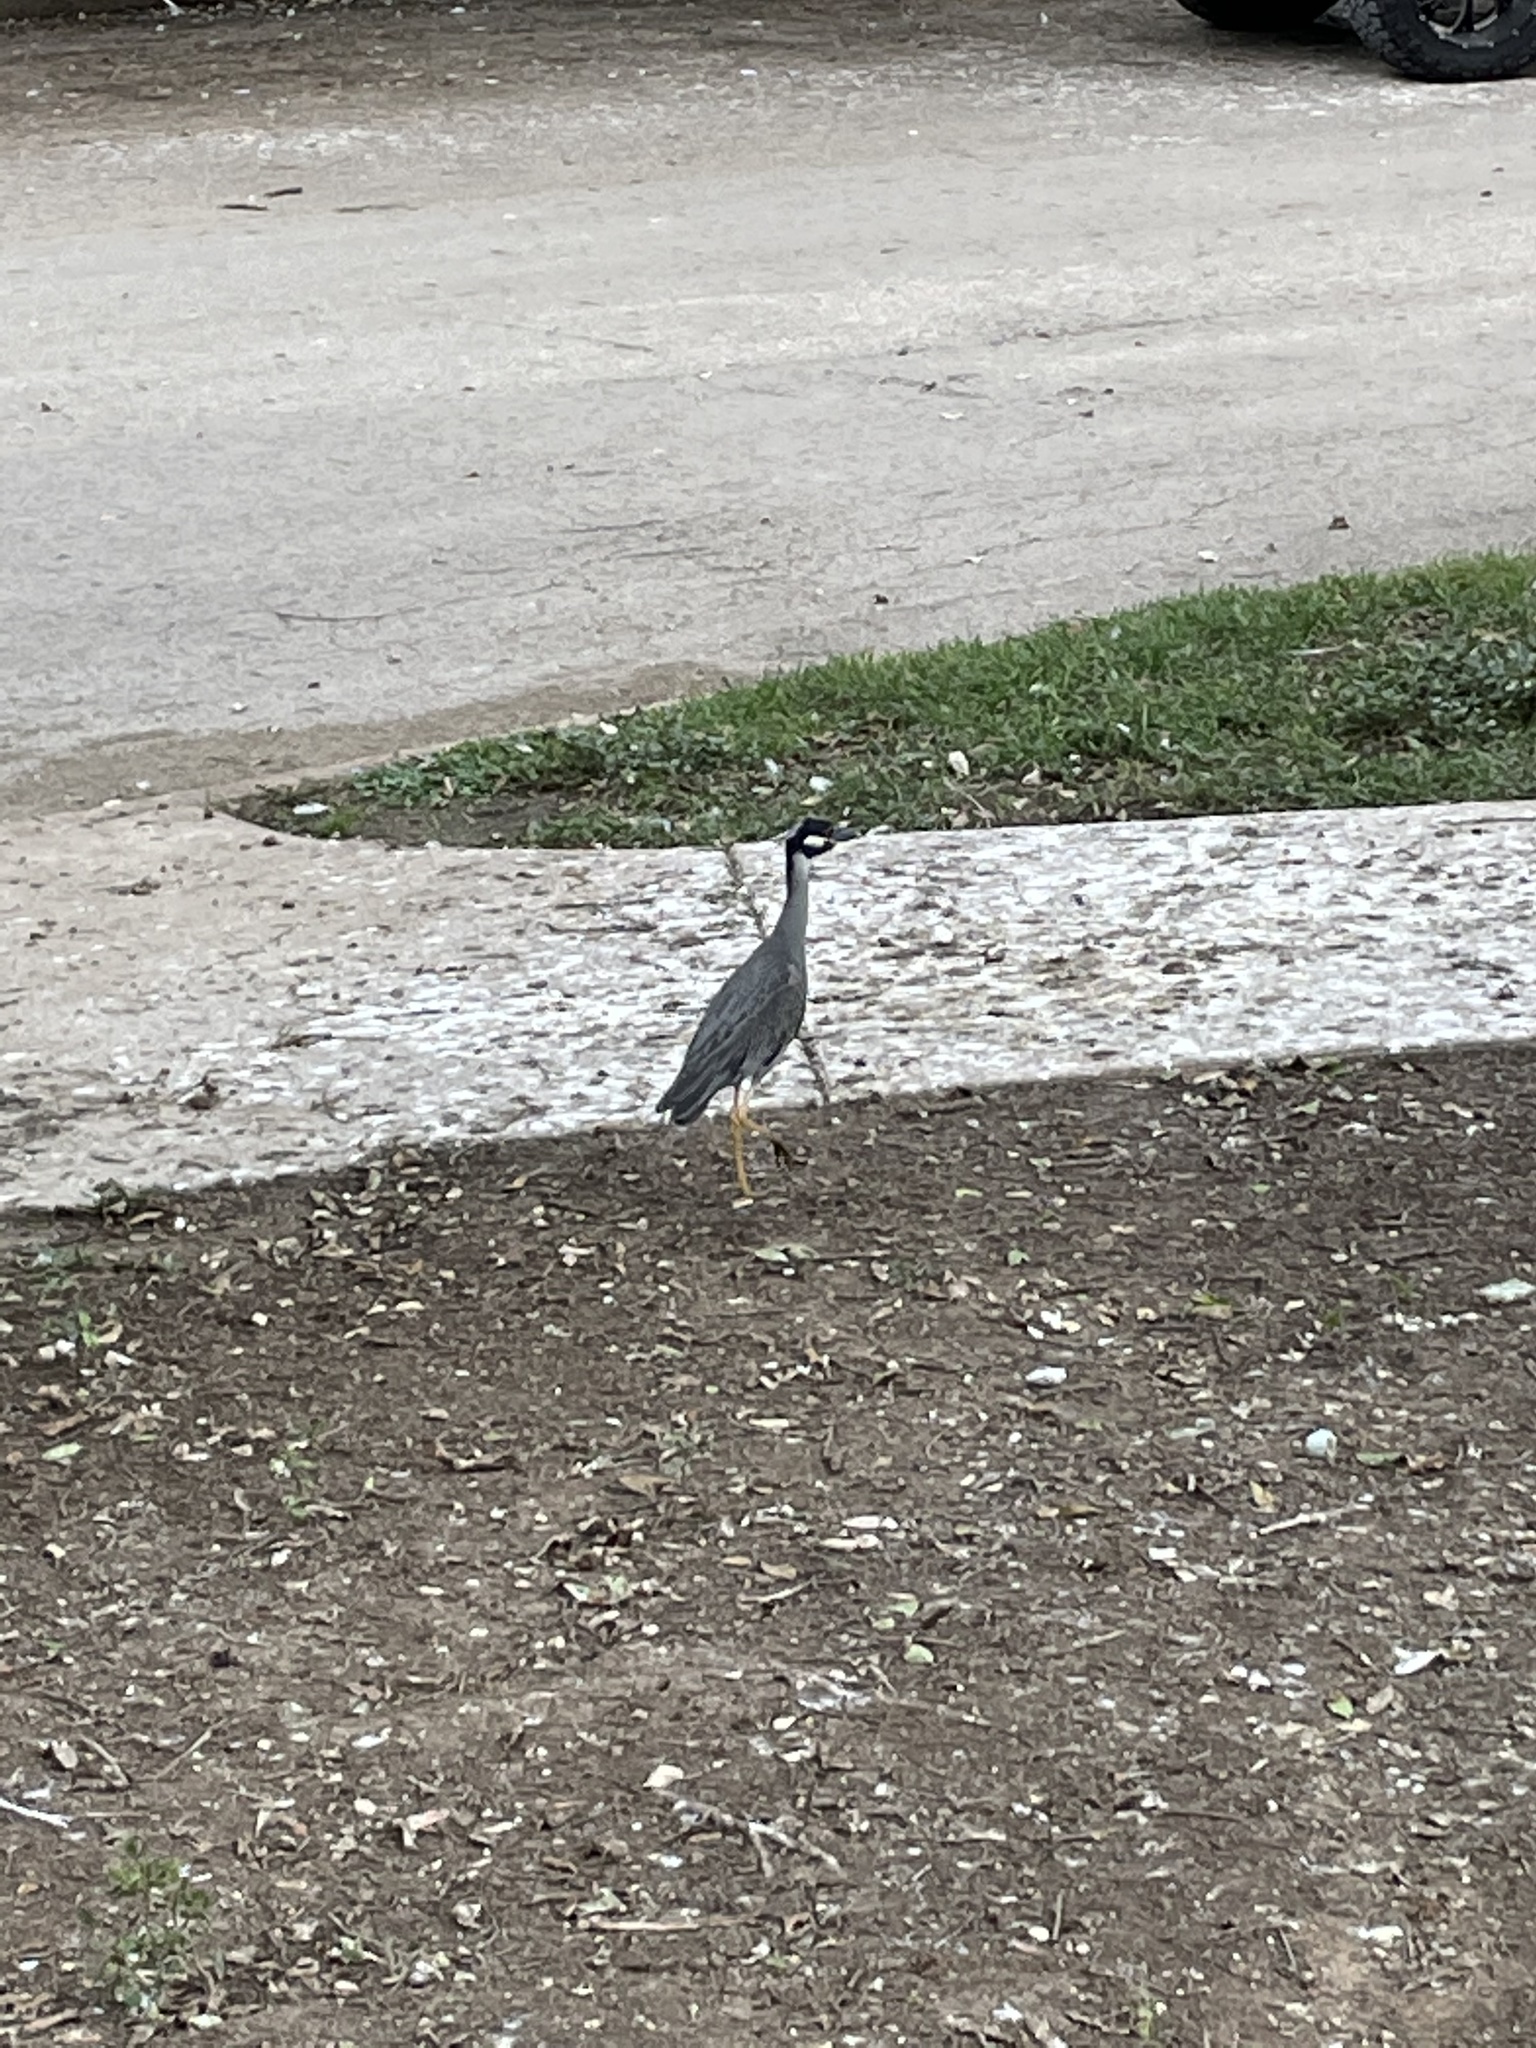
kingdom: Animalia
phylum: Chordata
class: Aves
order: Pelecaniformes
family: Ardeidae
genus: Nyctanassa
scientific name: Nyctanassa violacea
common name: Yellow-crowned night heron
